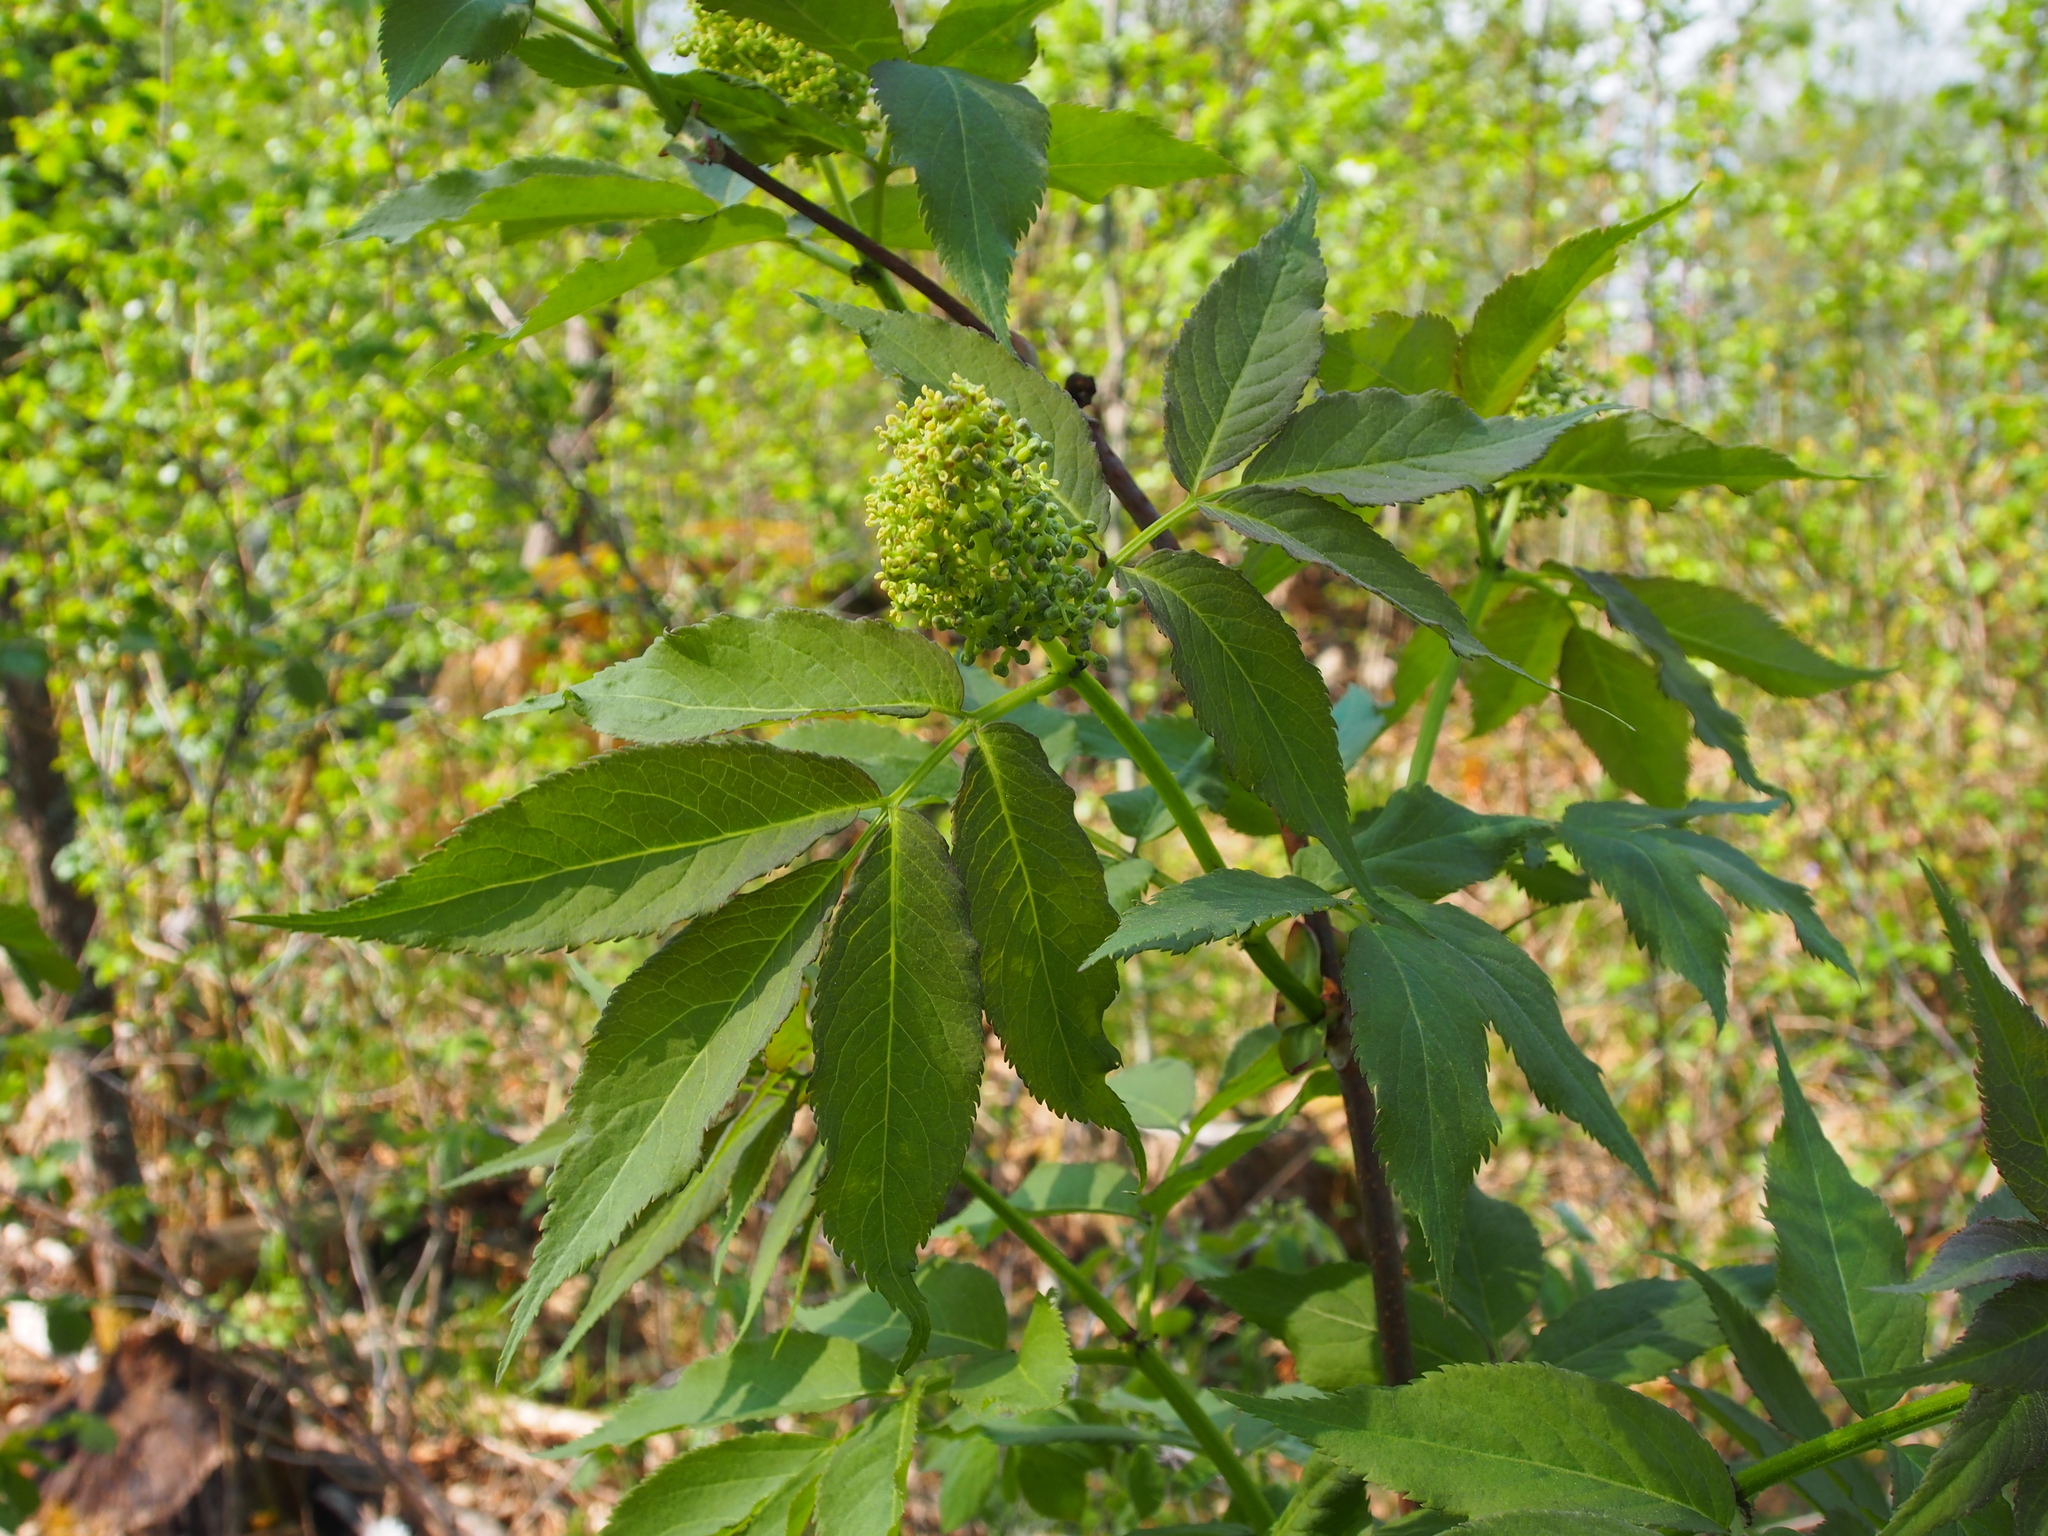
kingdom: Plantae
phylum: Tracheophyta
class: Magnoliopsida
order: Dipsacales
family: Viburnaceae
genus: Sambucus
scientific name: Sambucus racemosa
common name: Red-berried elder
